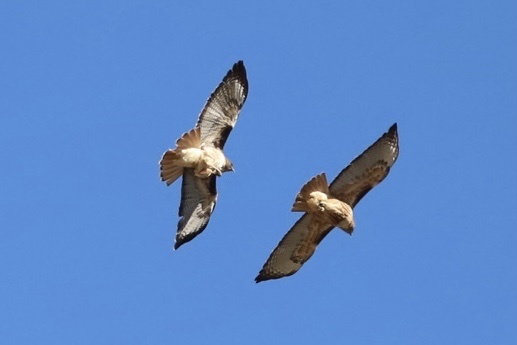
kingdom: Animalia
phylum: Chordata
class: Aves
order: Accipitriformes
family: Accipitridae
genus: Buteo
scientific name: Buteo jamaicensis
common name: Red-tailed hawk
